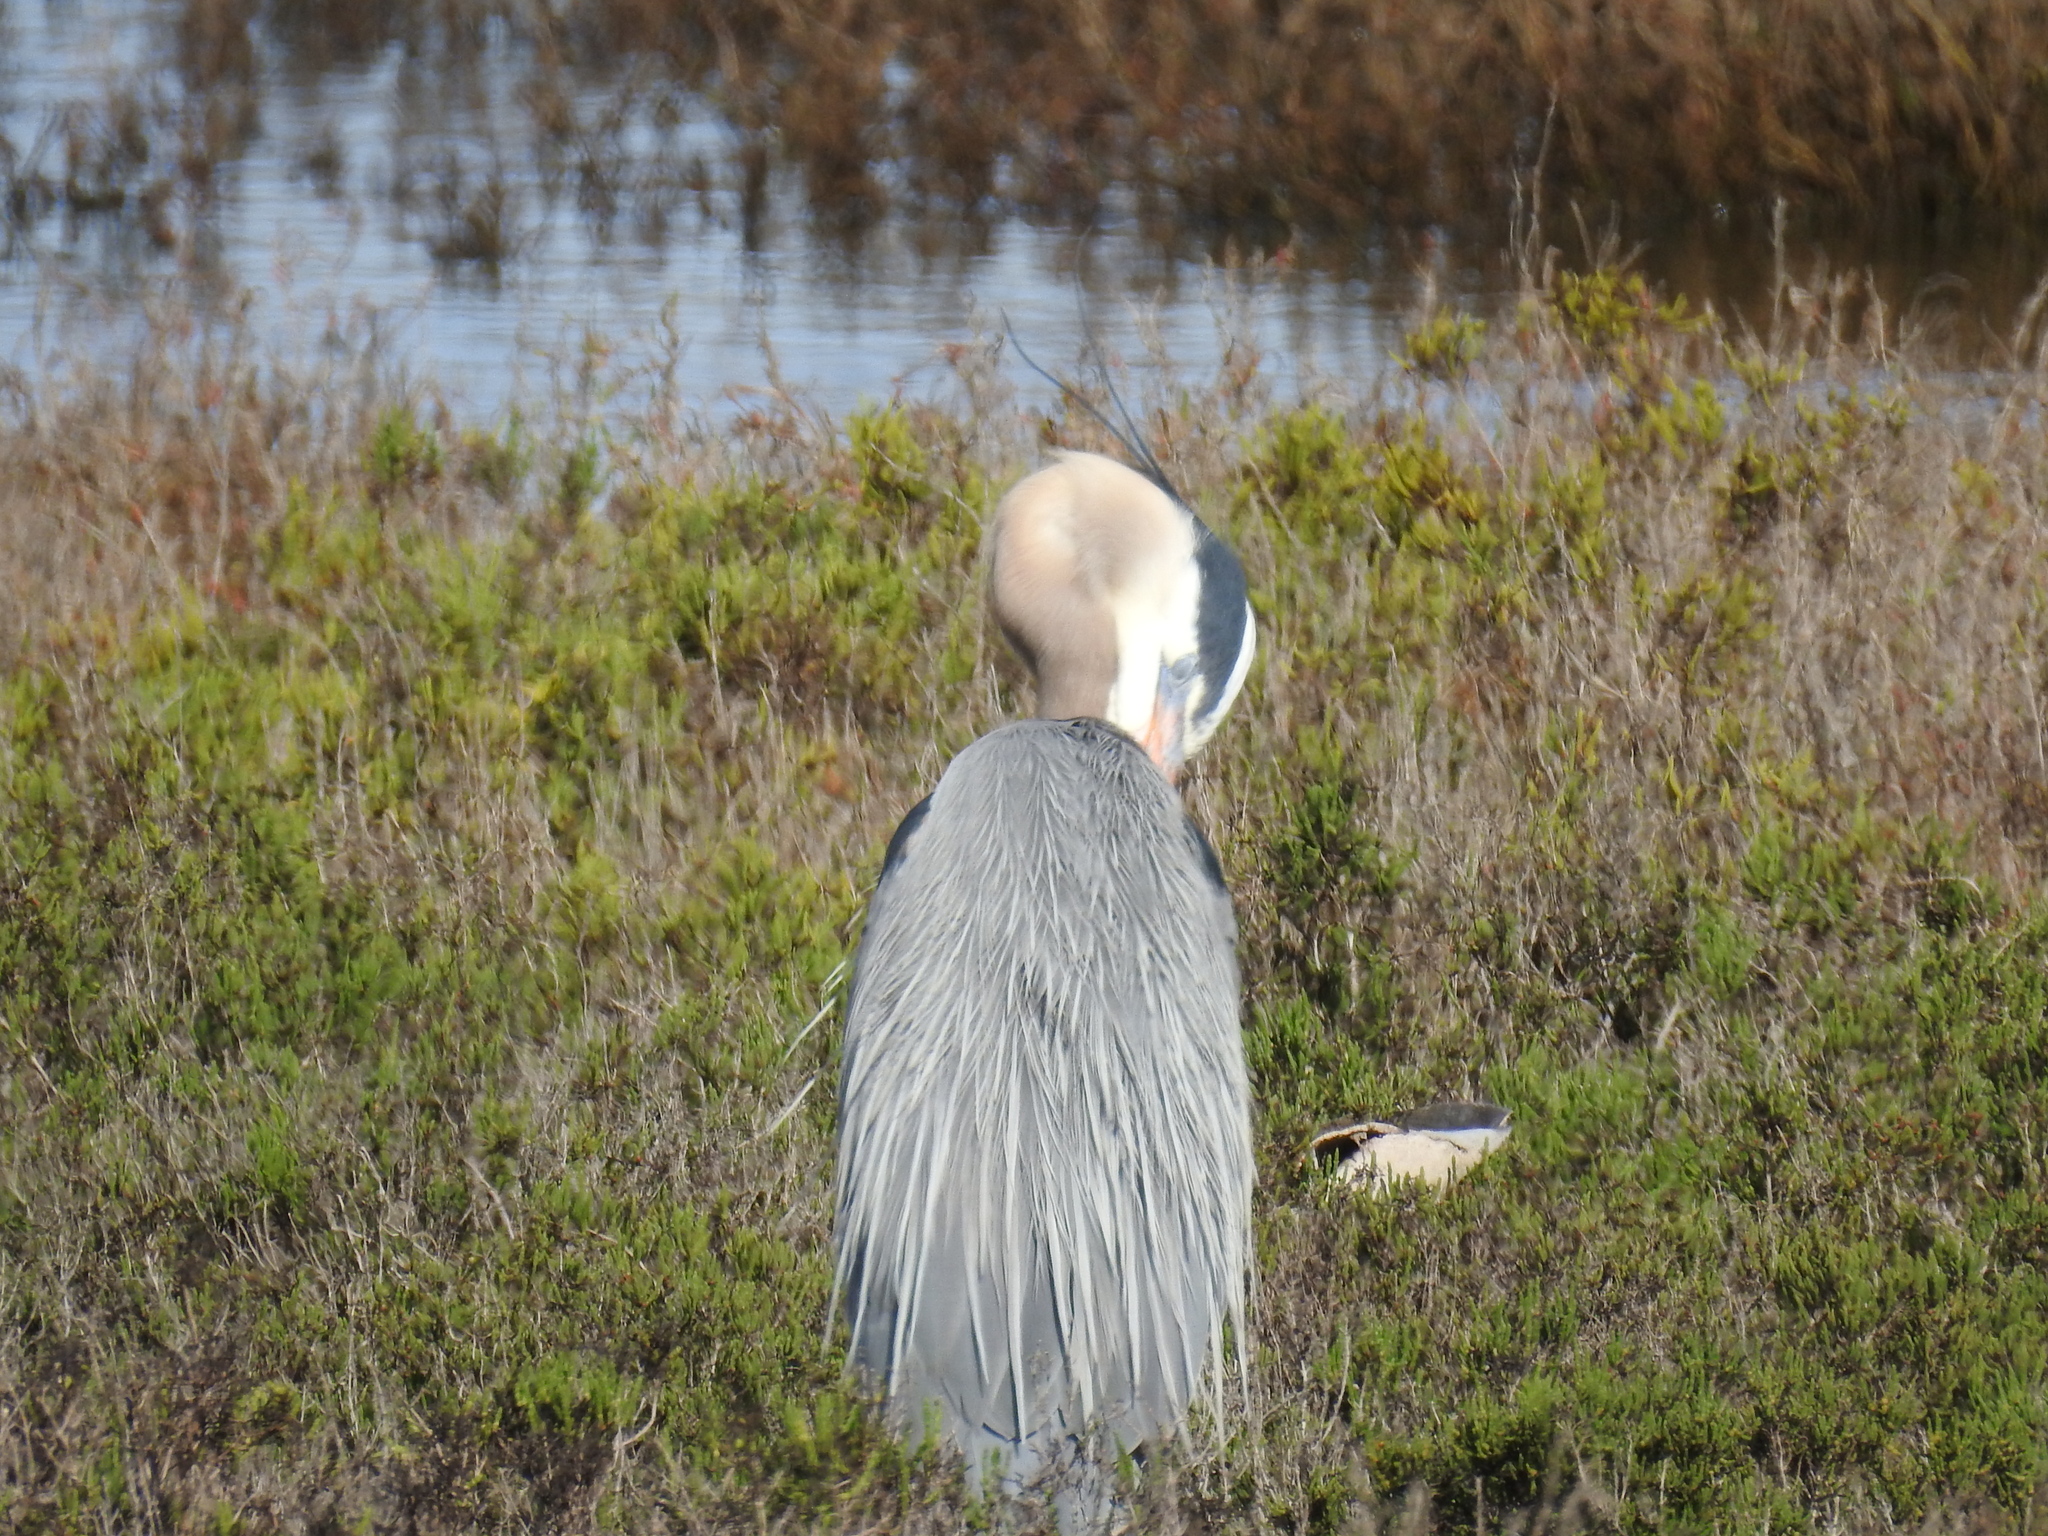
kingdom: Animalia
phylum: Chordata
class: Aves
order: Pelecaniformes
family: Ardeidae
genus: Ardea
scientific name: Ardea herodias
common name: Great blue heron
